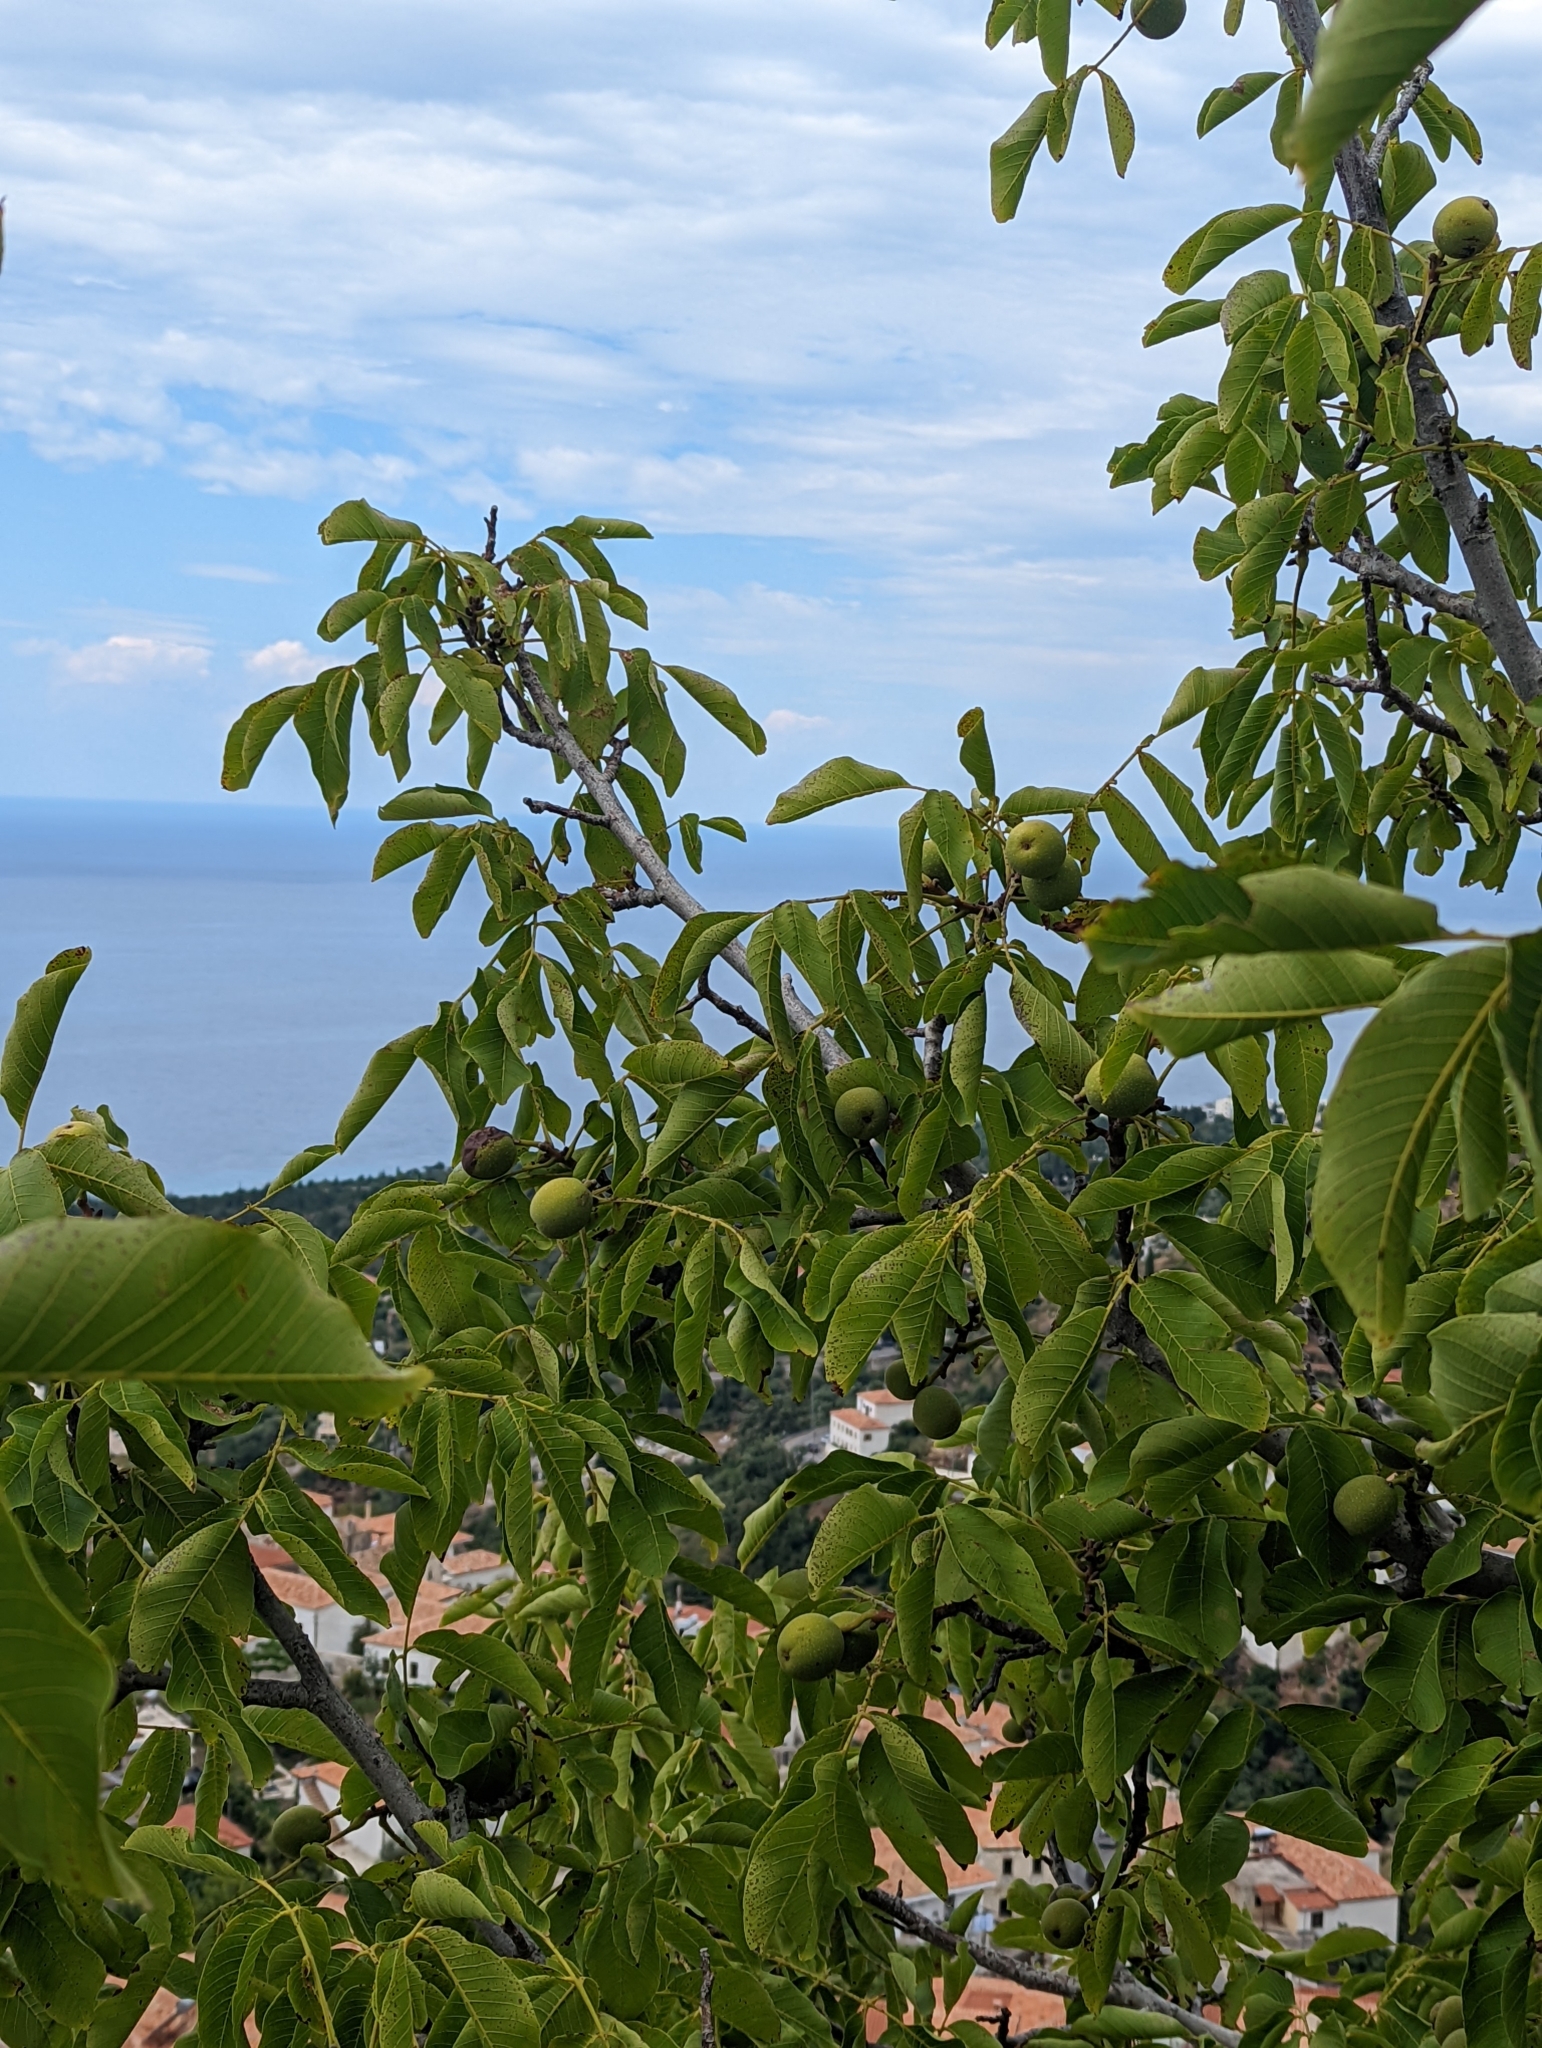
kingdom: Plantae
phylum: Tracheophyta
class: Magnoliopsida
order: Fagales
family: Juglandaceae
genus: Juglans
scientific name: Juglans regia
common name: Walnut
